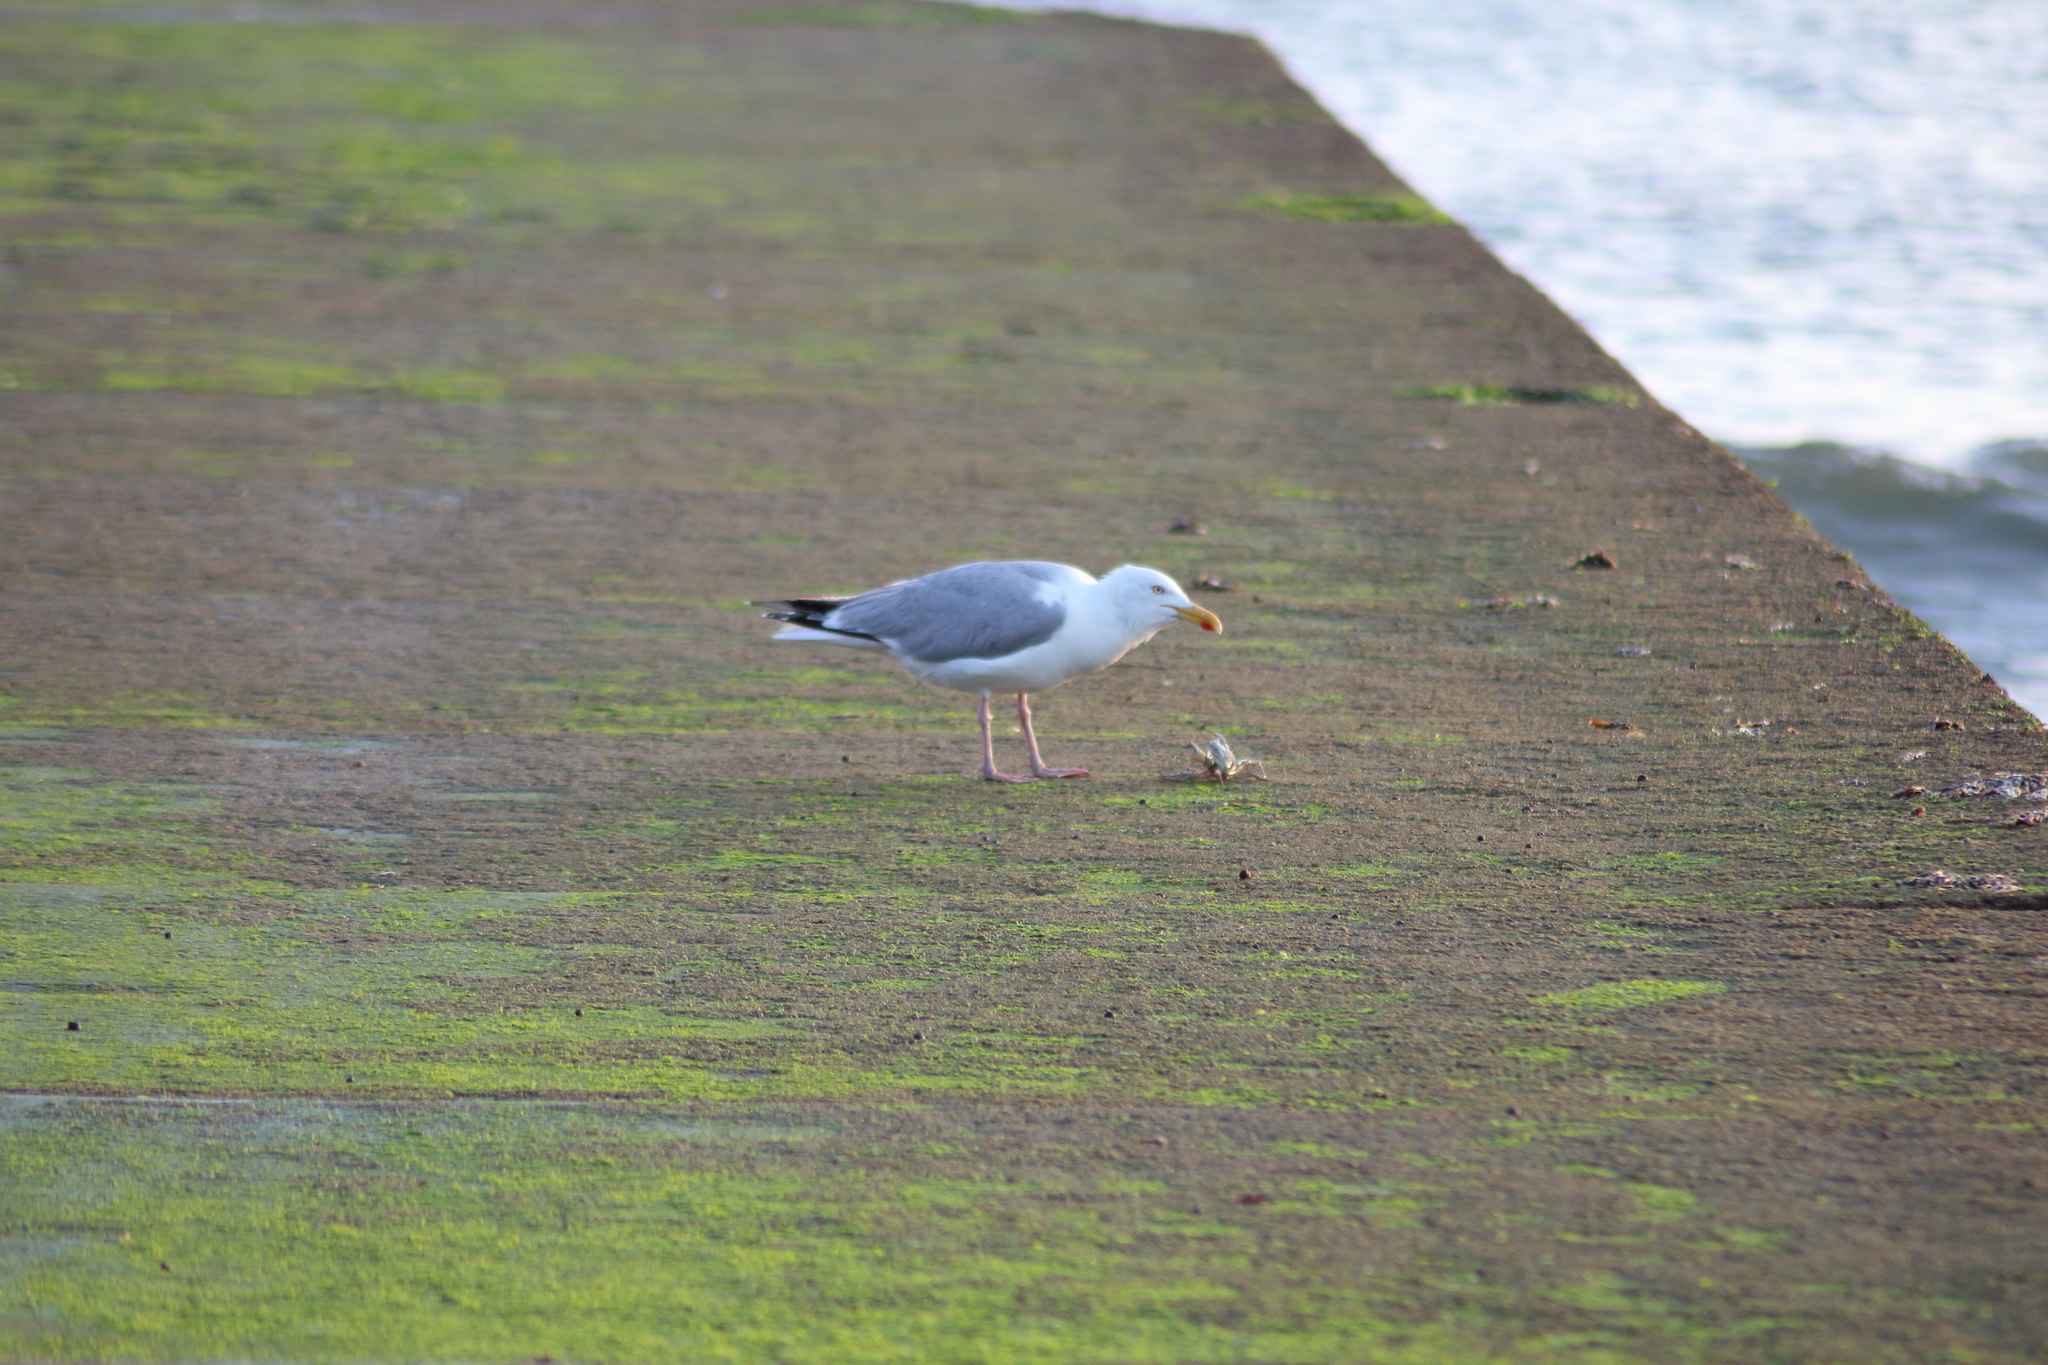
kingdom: Animalia
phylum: Chordata
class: Aves
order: Charadriiformes
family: Laridae
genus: Larus
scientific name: Larus argentatus
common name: Herring gull
